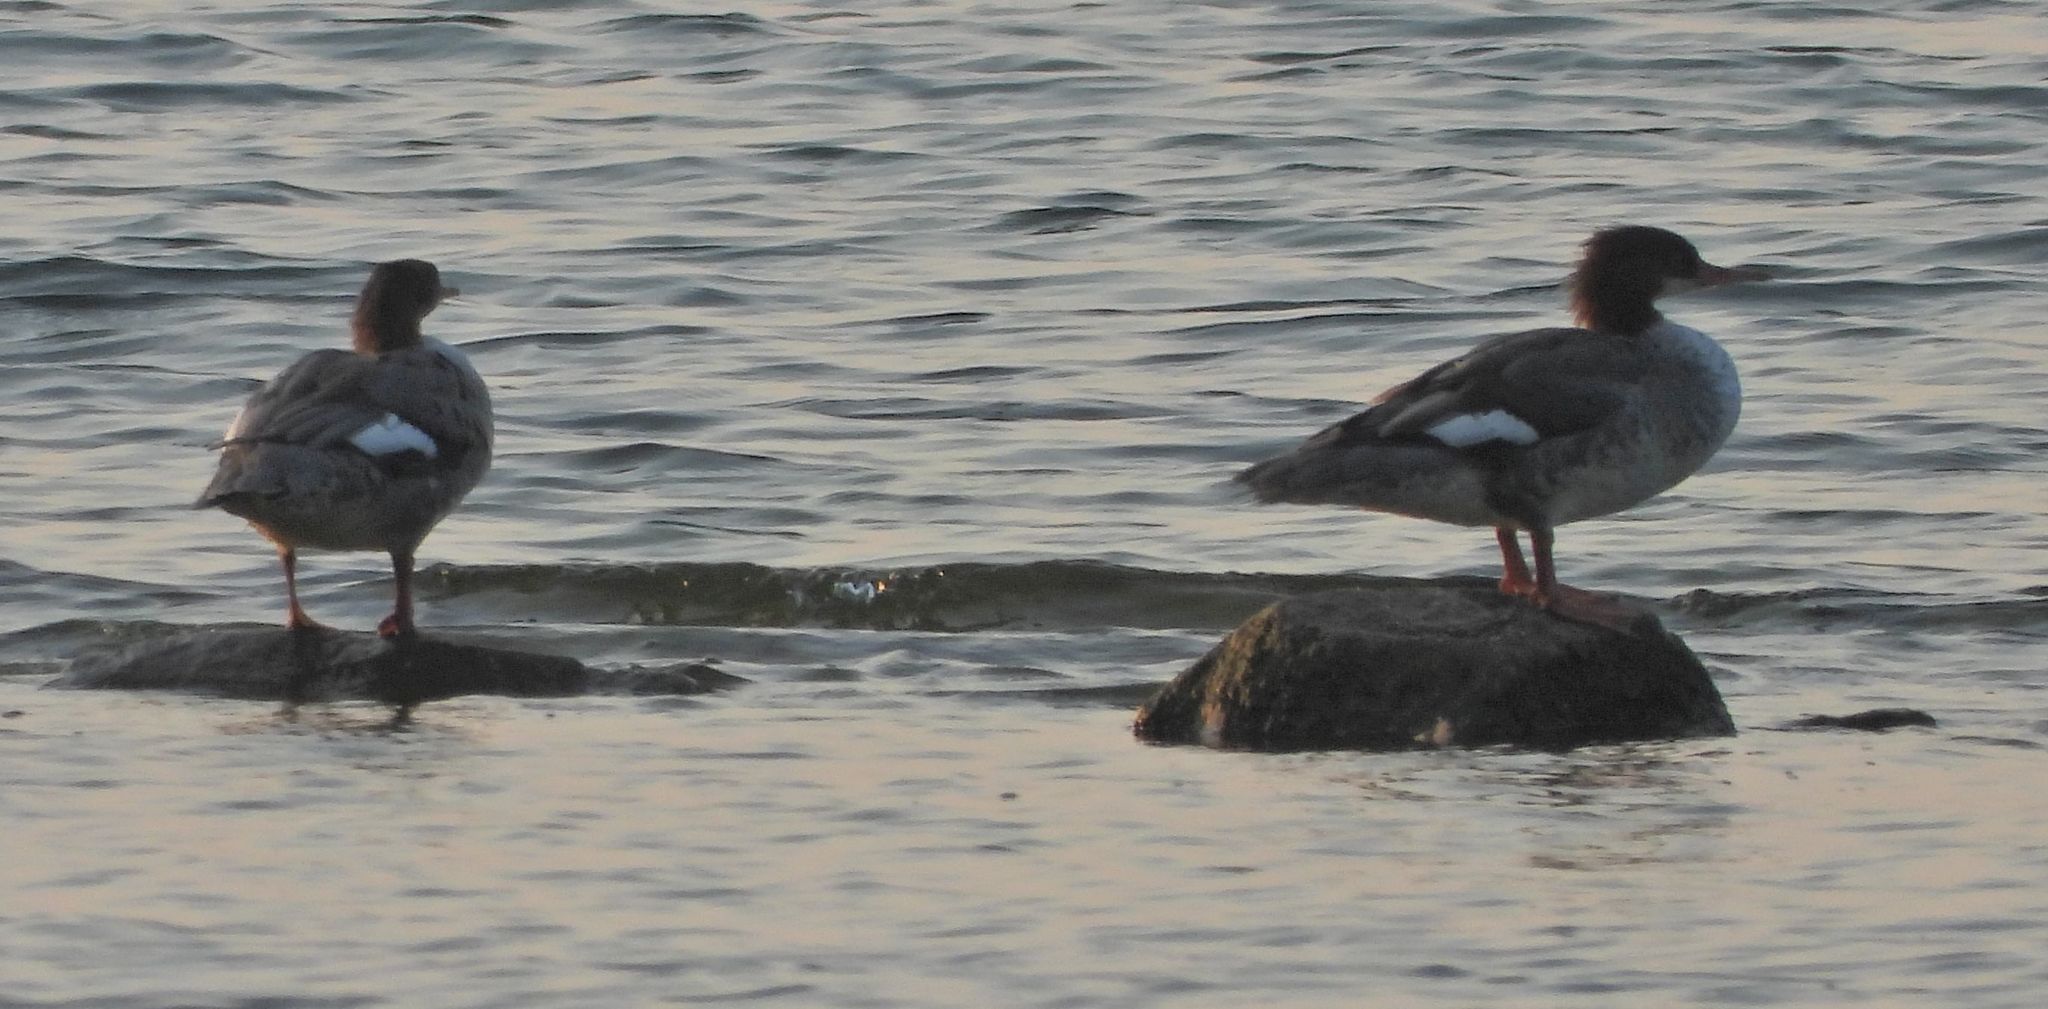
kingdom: Animalia
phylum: Chordata
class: Aves
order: Anseriformes
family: Anatidae
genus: Mergus
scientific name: Mergus merganser
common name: Common merganser
